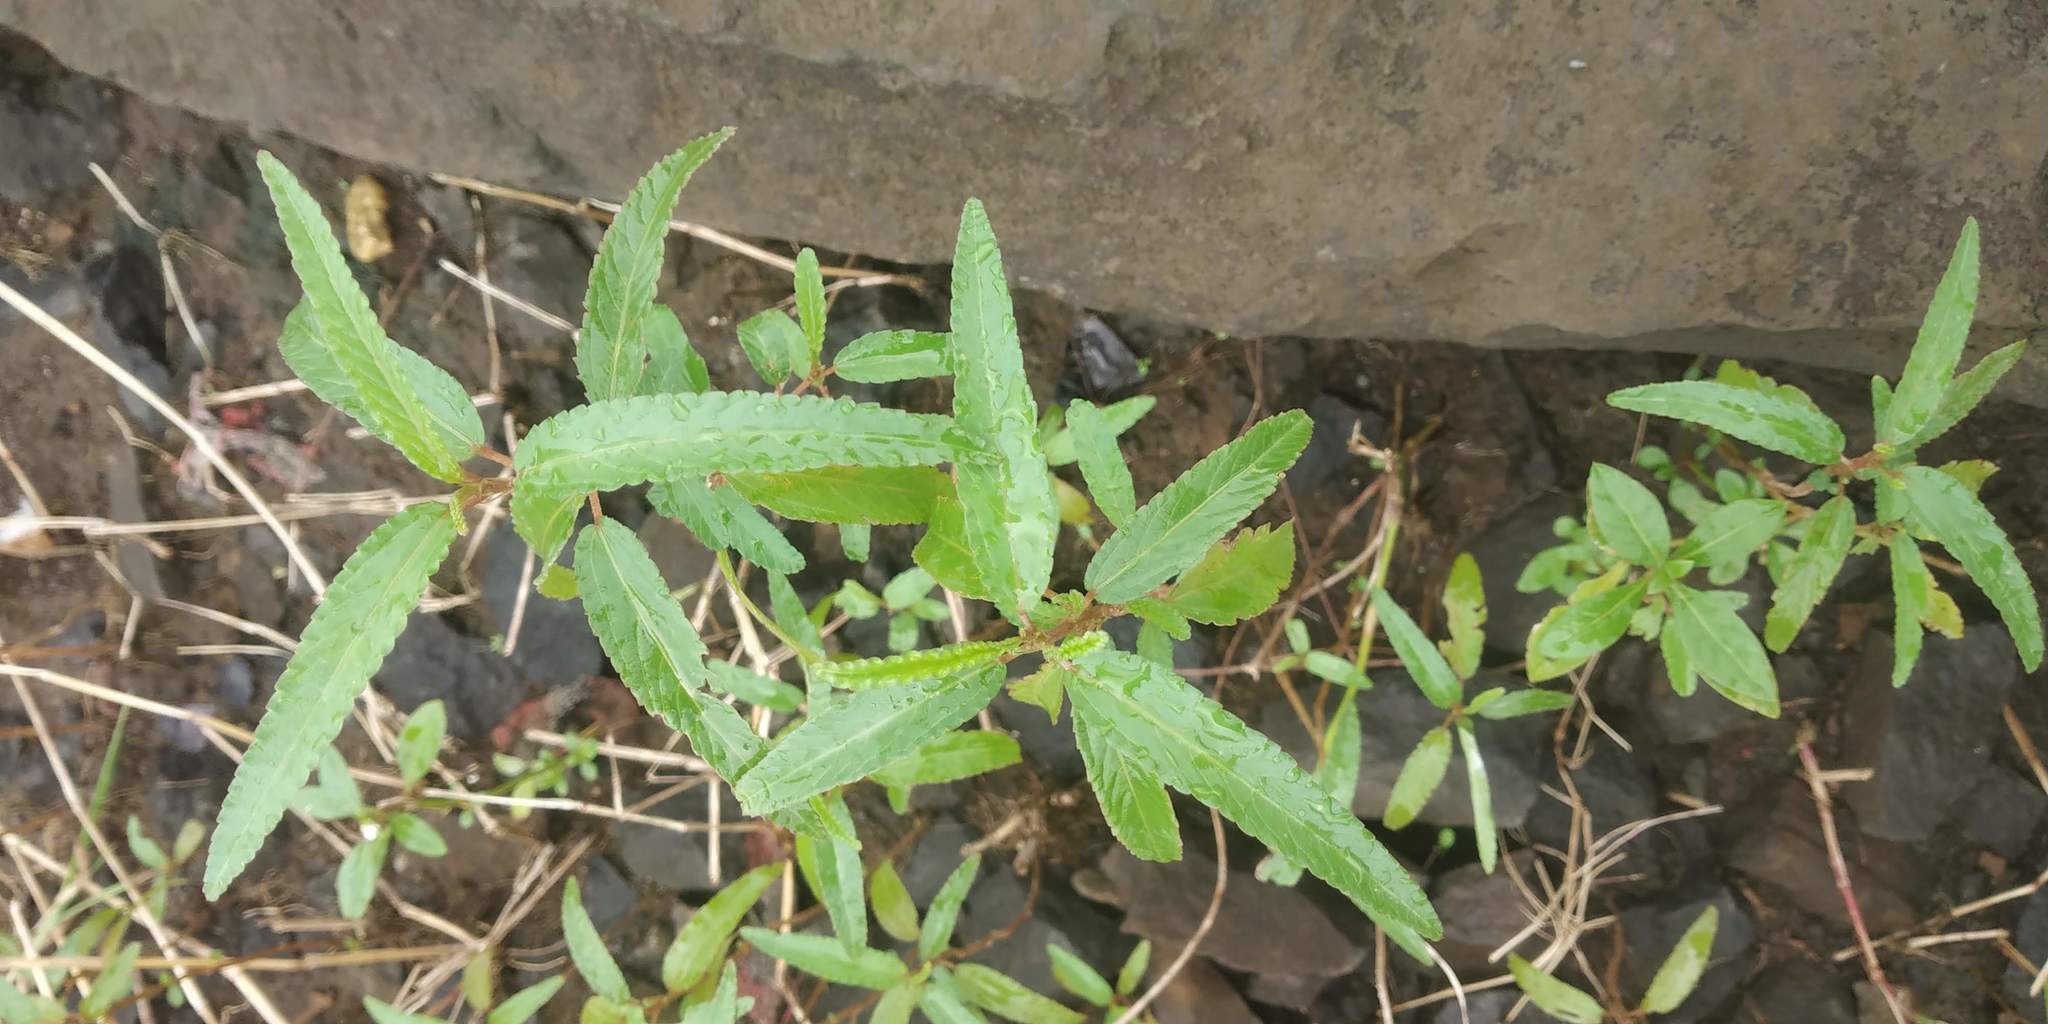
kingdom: Plantae
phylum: Tracheophyta
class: Magnoliopsida
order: Malvales
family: Malvaceae
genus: Corchorus
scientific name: Corchorus fascicularis
